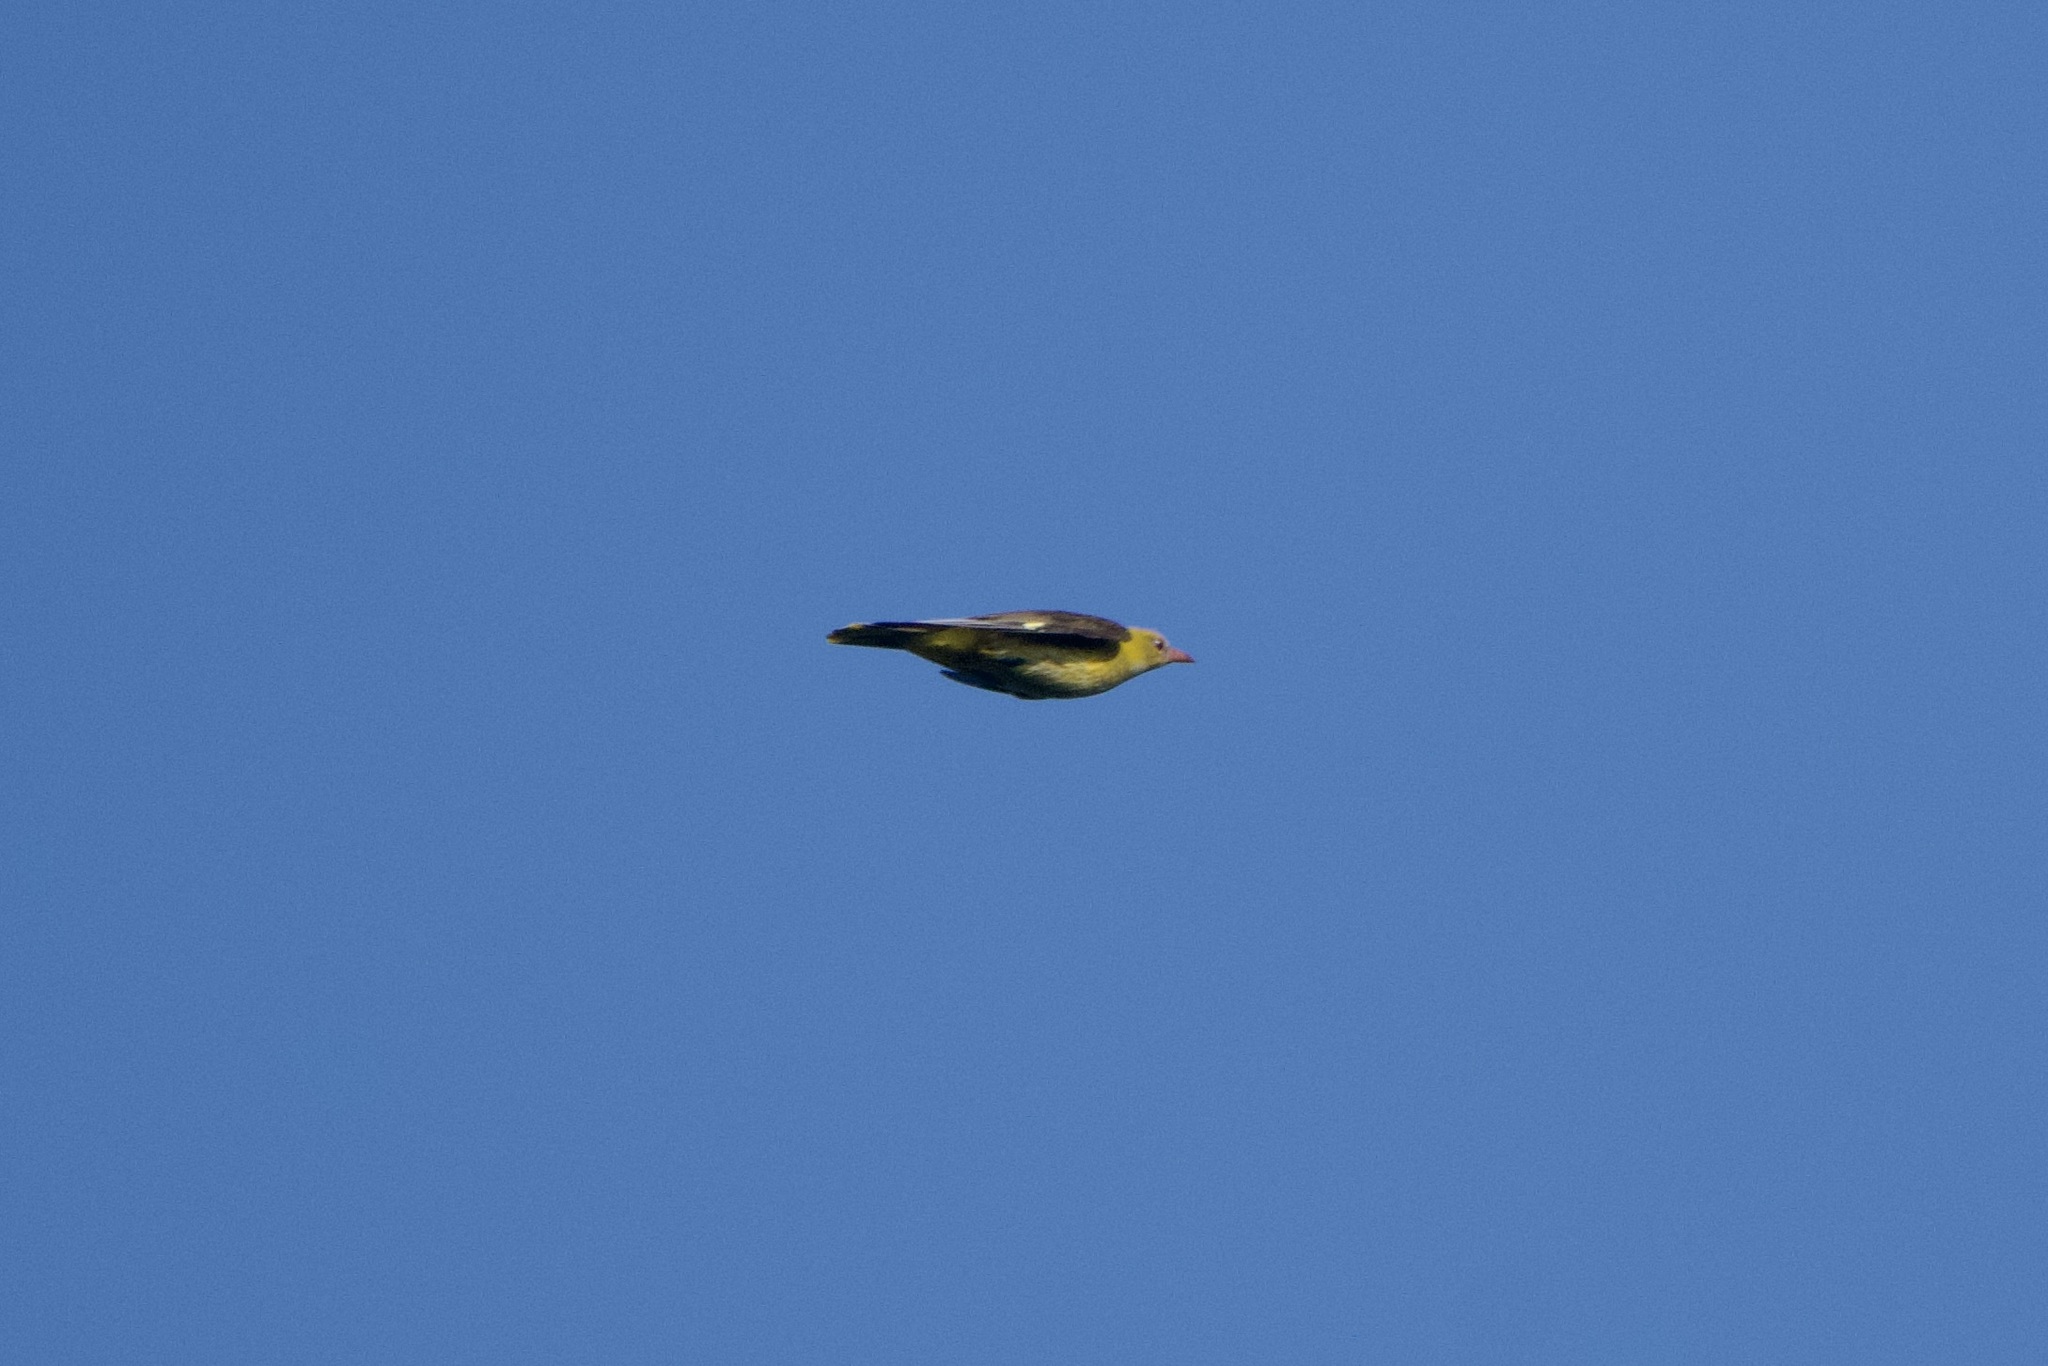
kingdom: Animalia
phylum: Chordata
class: Aves
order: Passeriformes
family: Oriolidae
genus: Oriolus
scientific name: Oriolus oriolus
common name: Eurasian golden oriole
